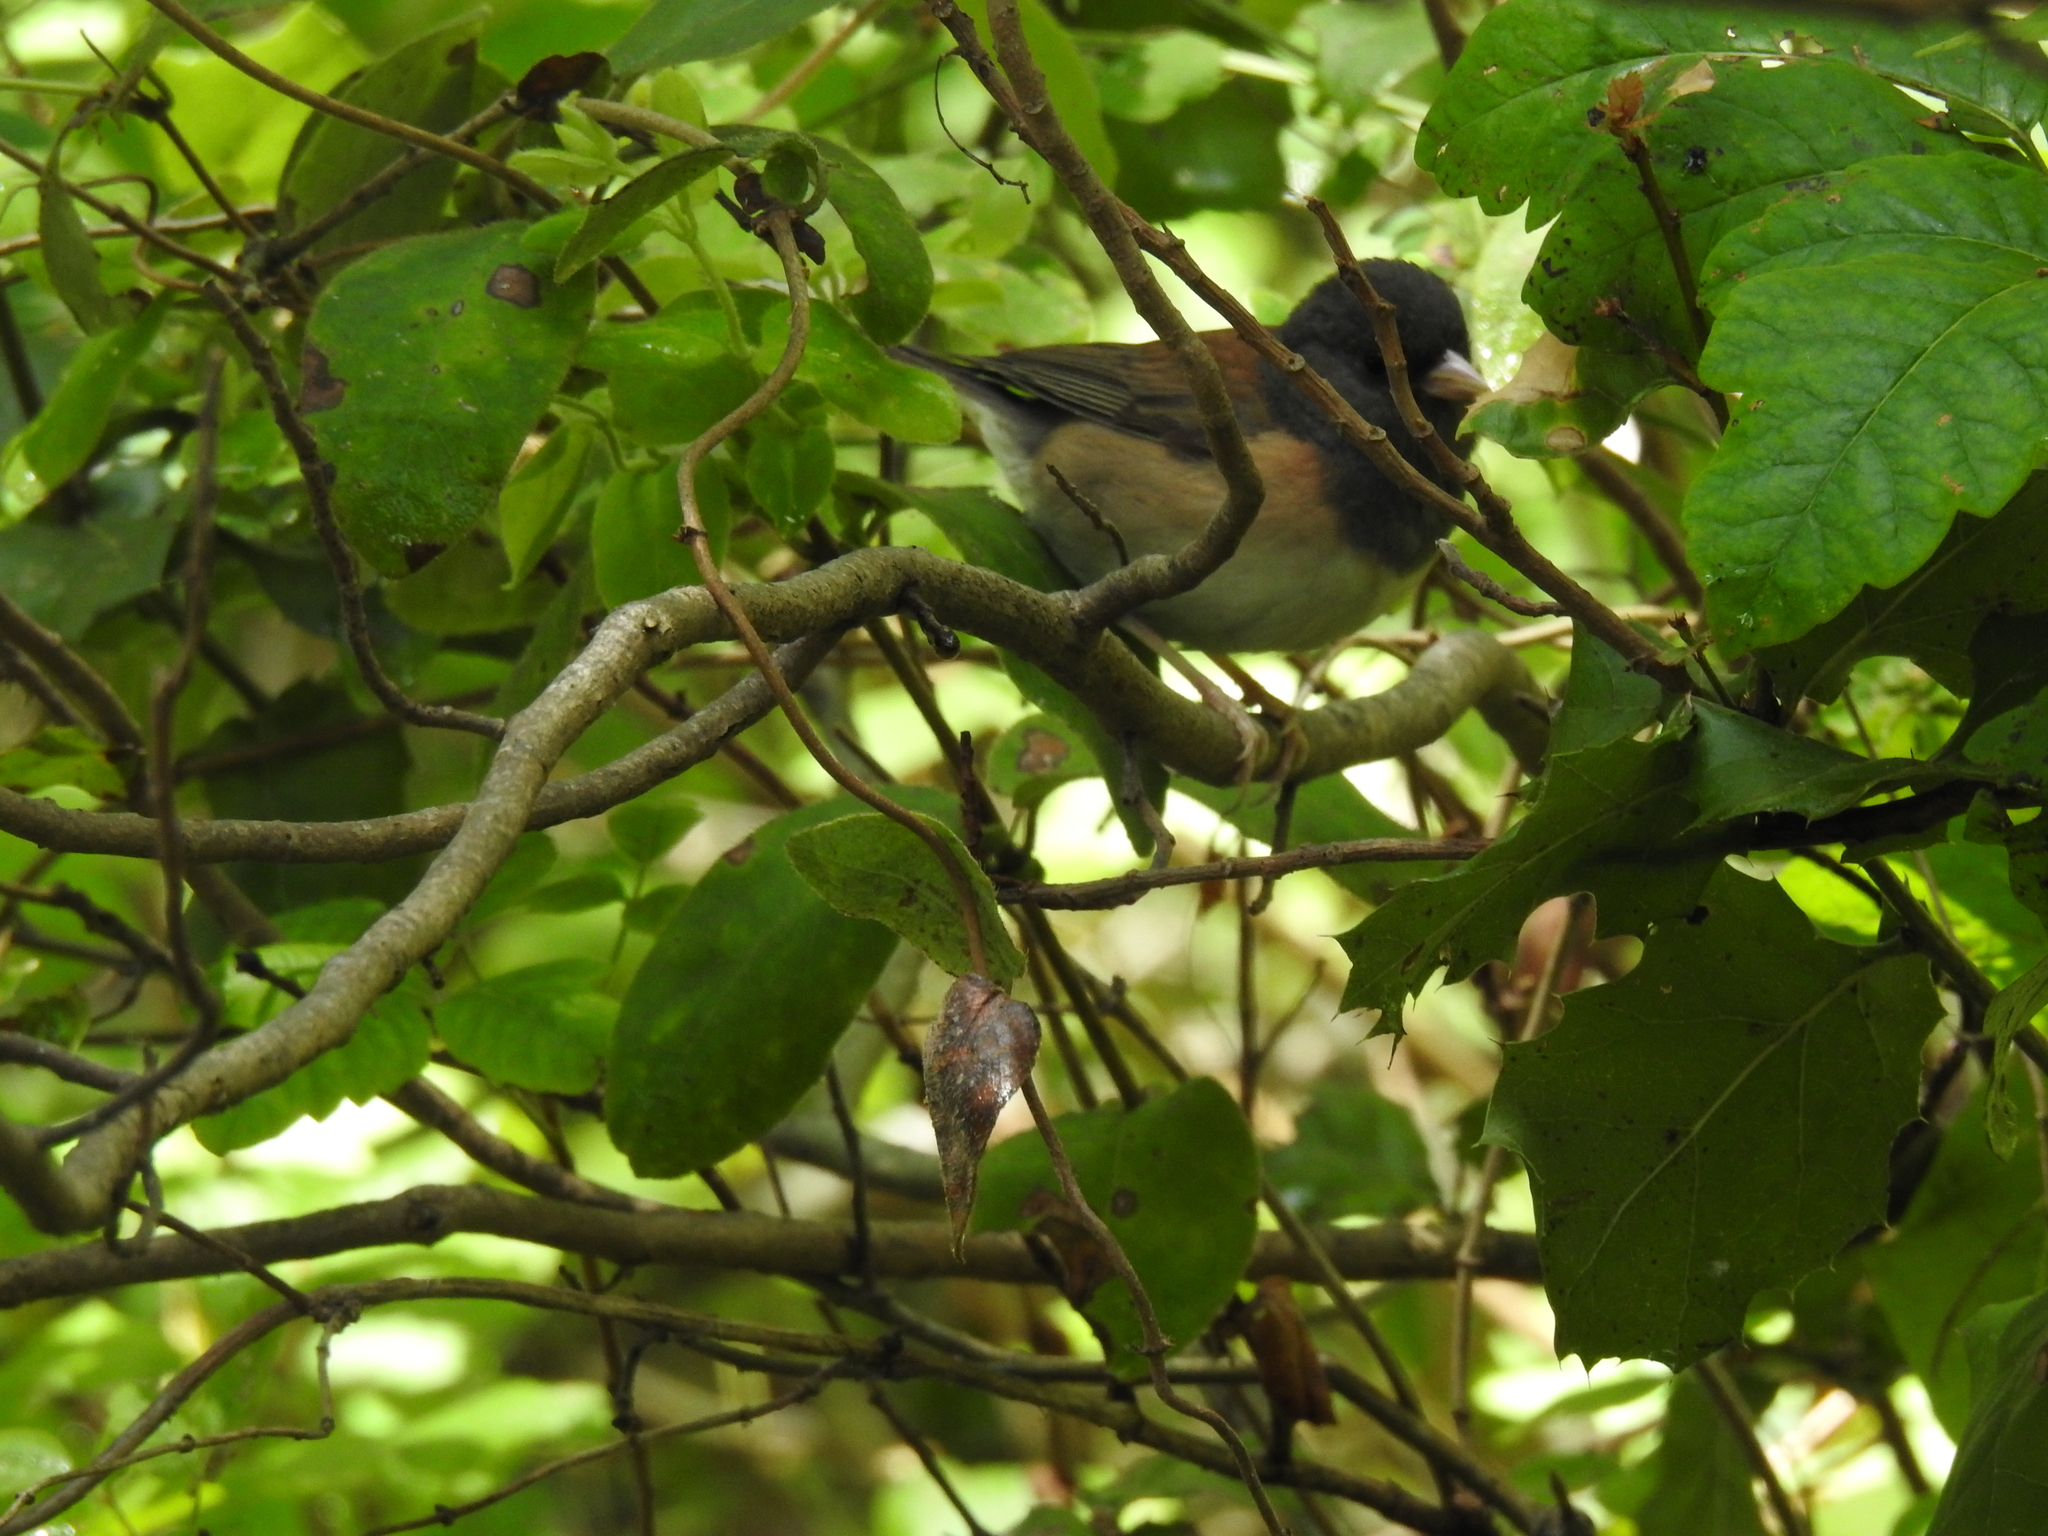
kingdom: Animalia
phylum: Chordata
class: Aves
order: Passeriformes
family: Passerellidae
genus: Junco
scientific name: Junco hyemalis
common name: Dark-eyed junco
